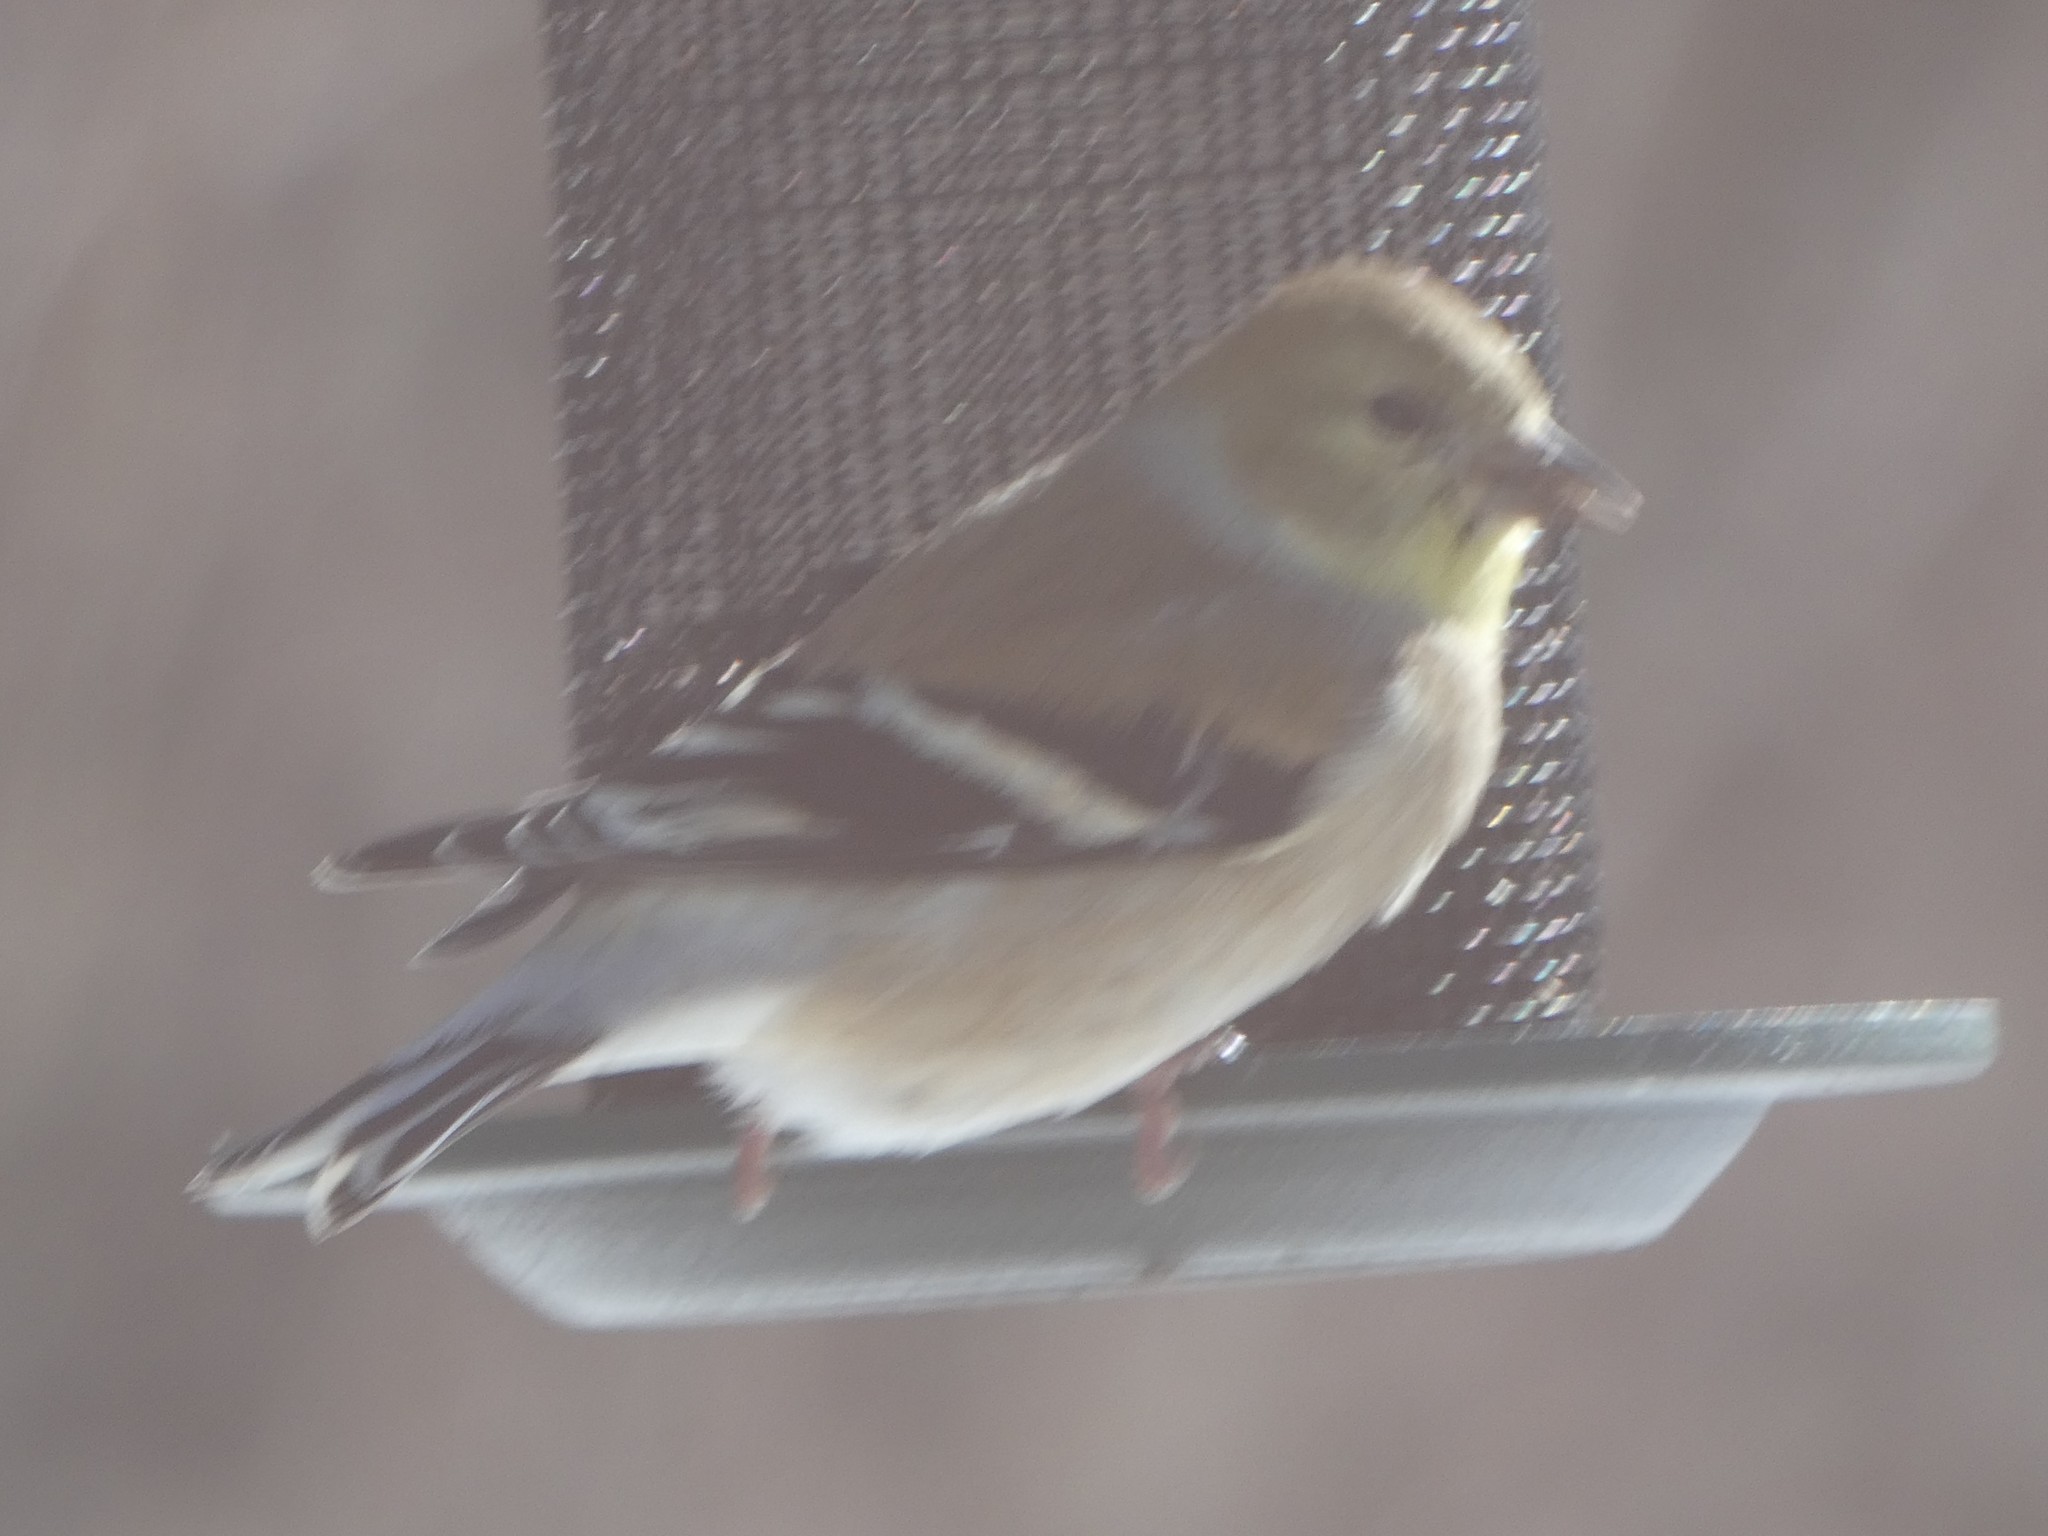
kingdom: Animalia
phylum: Chordata
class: Aves
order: Passeriformes
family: Fringillidae
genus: Spinus
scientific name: Spinus tristis
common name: American goldfinch
